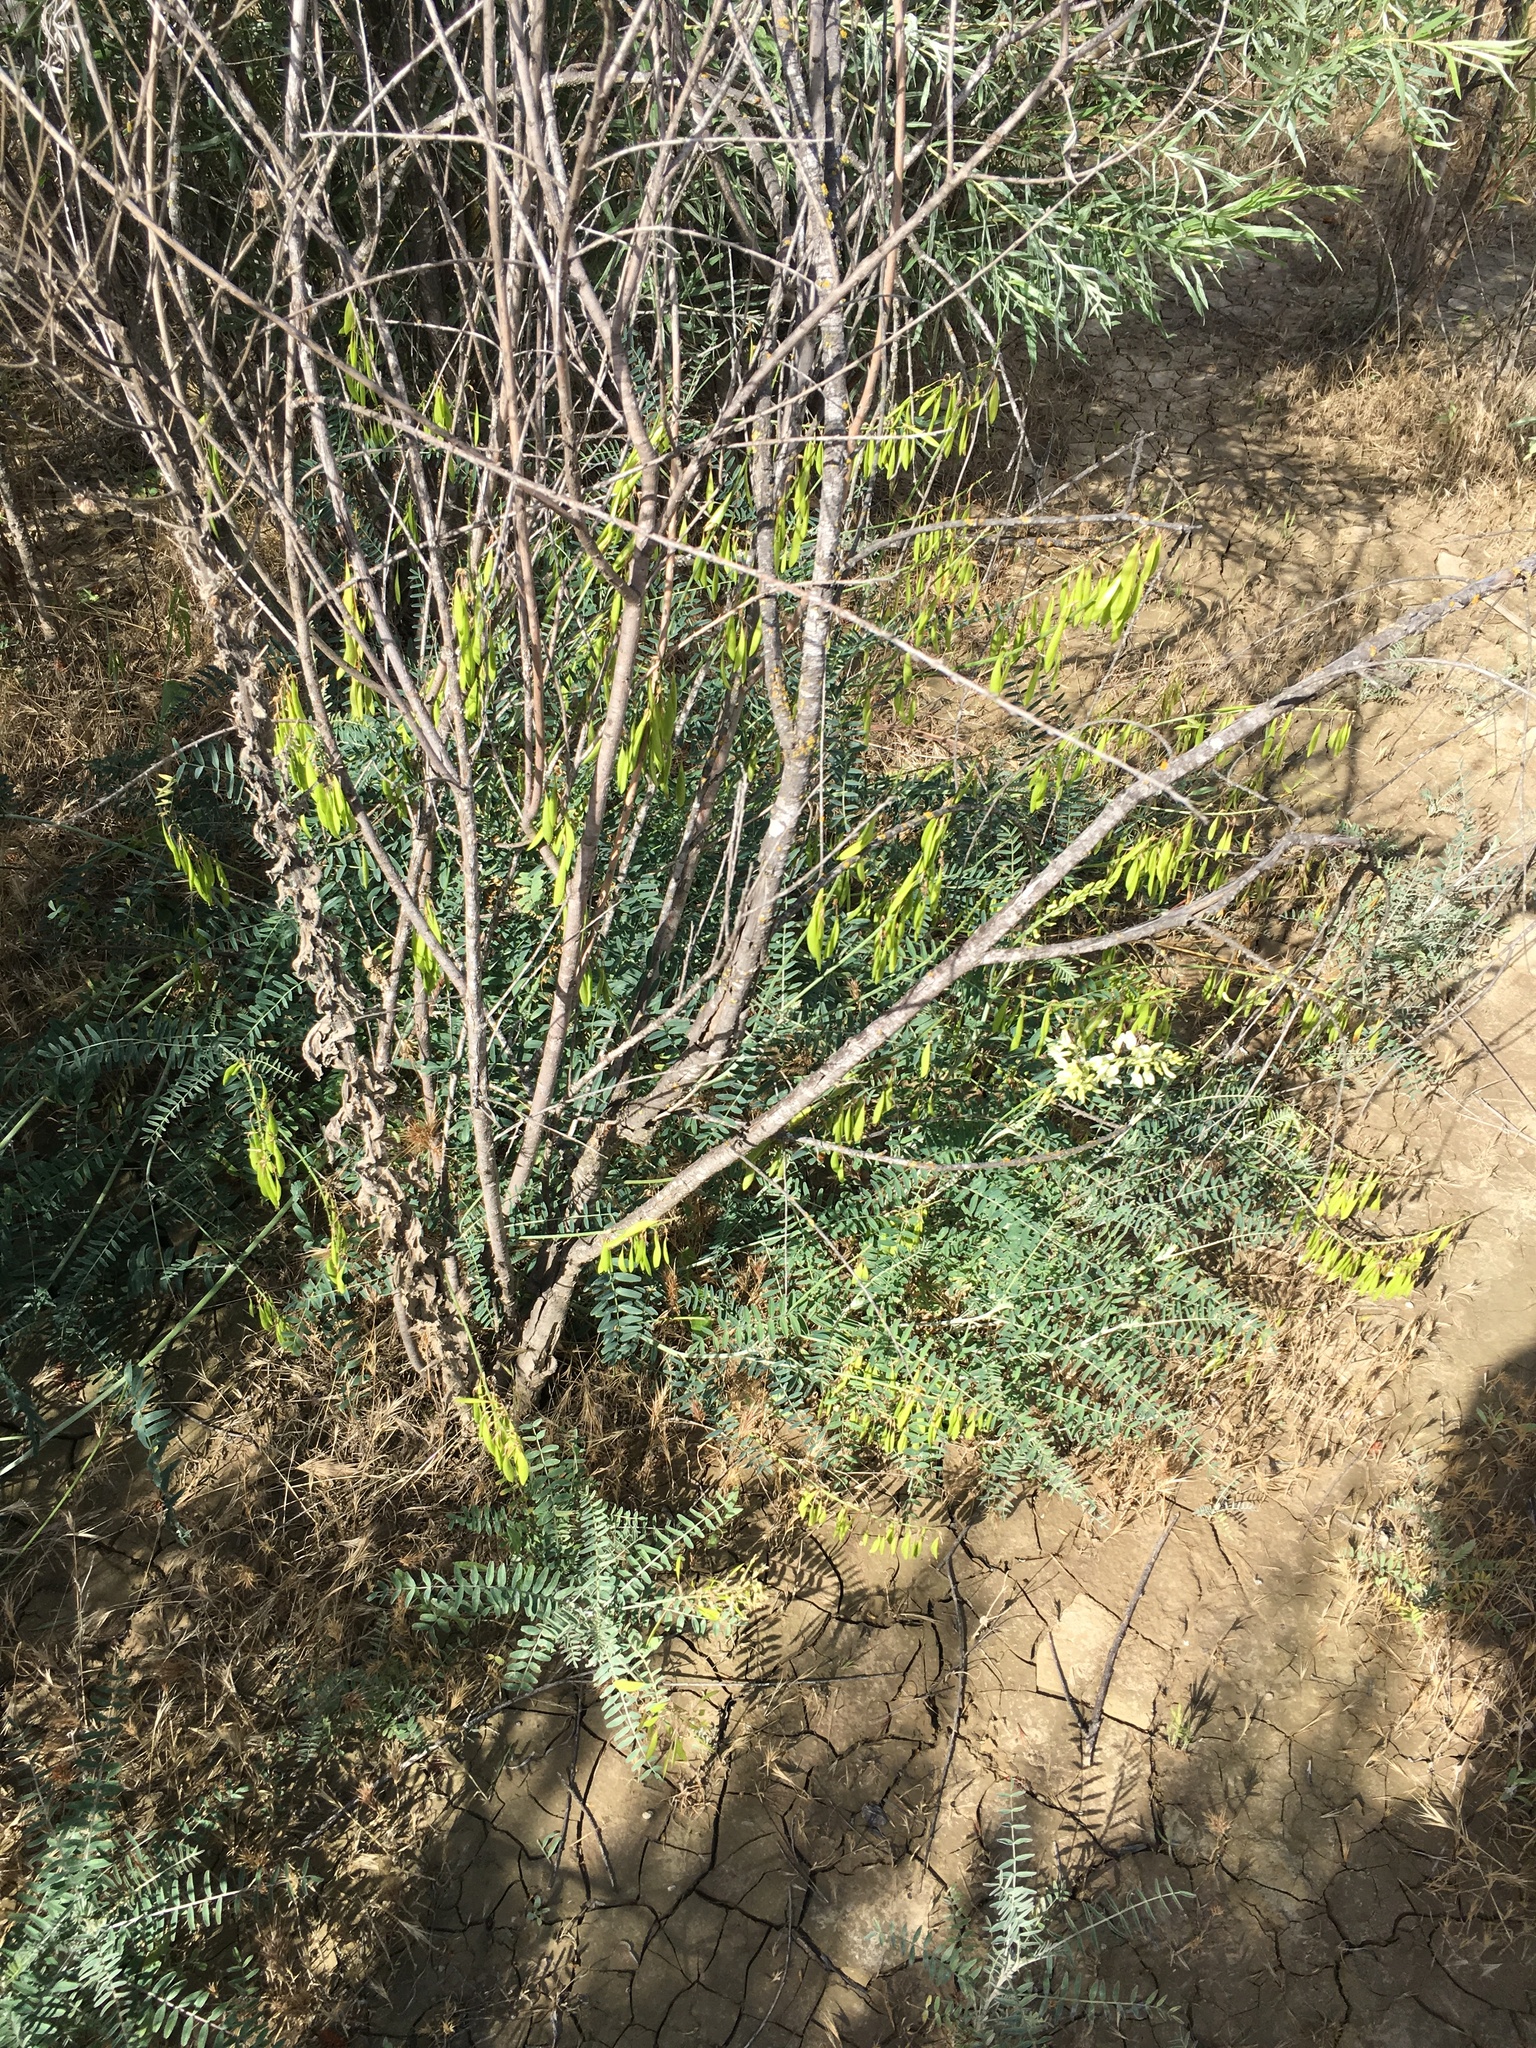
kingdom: Plantae
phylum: Tracheophyta
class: Magnoliopsida
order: Fabales
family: Fabaceae
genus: Astragalus
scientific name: Astragalus trichopodus
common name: Santa barbara milk-vetch
